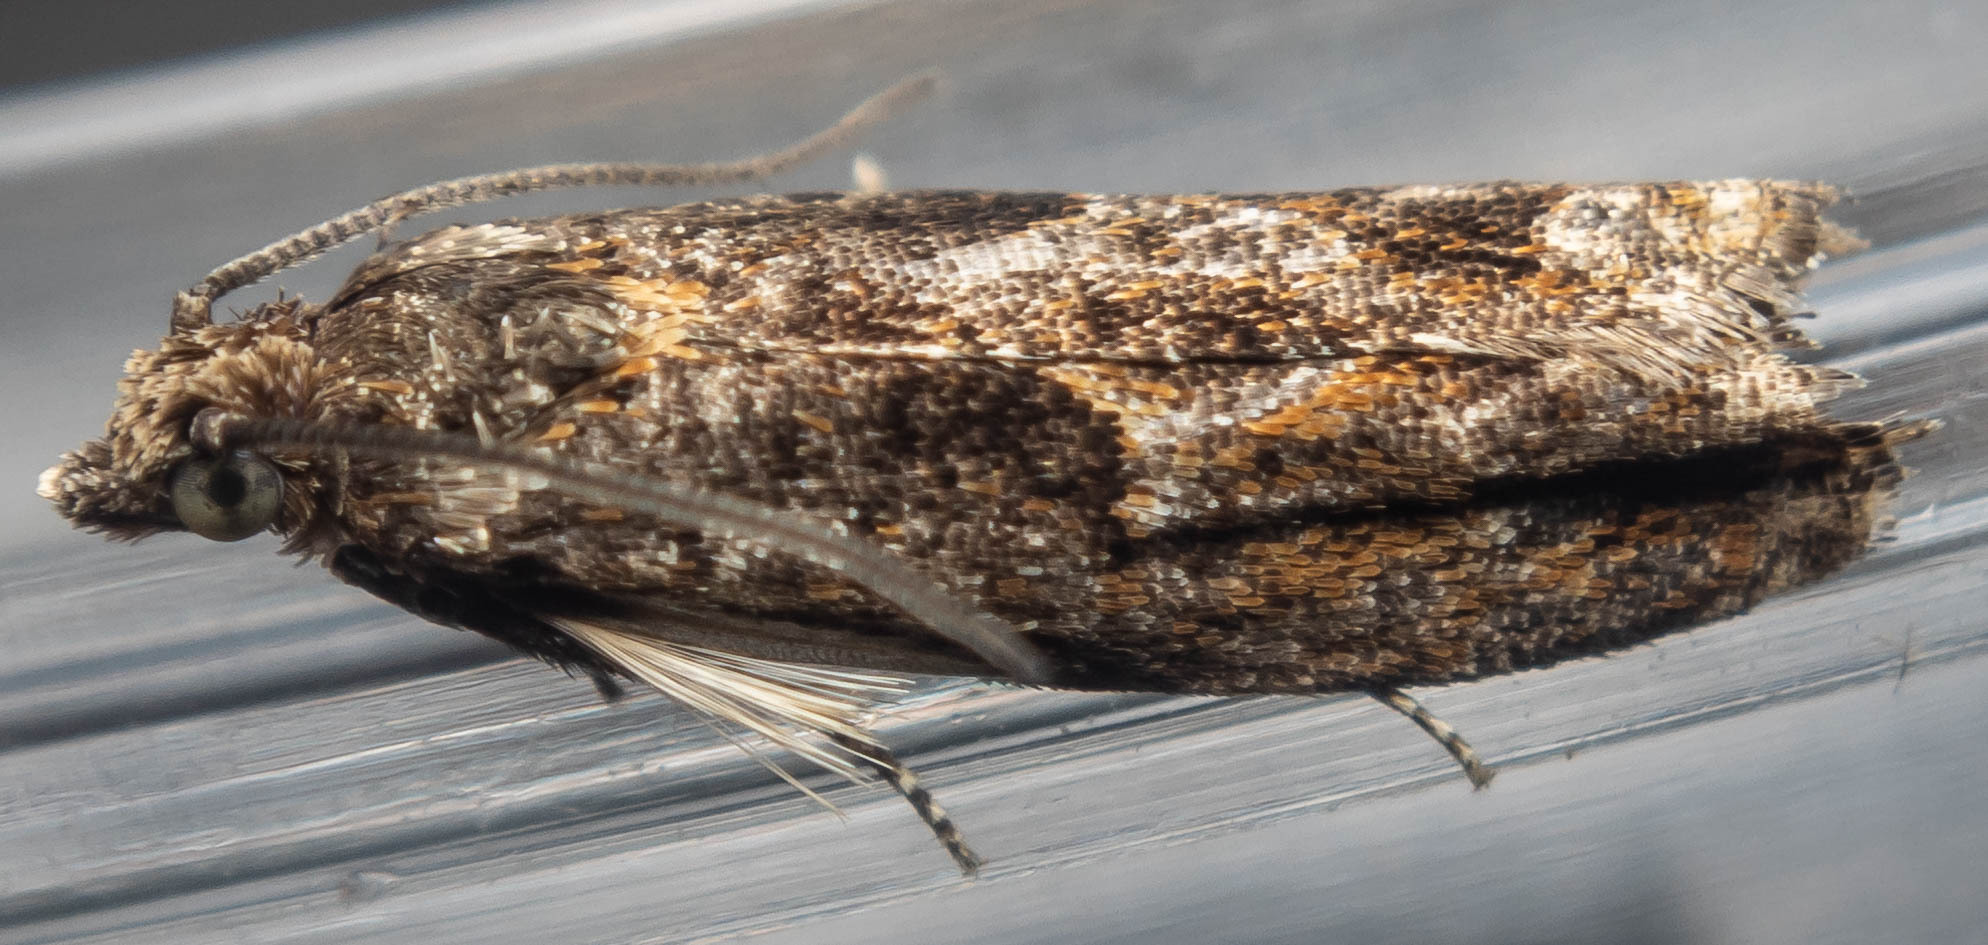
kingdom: Animalia
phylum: Arthropoda
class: Insecta
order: Lepidoptera
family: Tortricidae
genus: Epinotia
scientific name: Epinotia immundana
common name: Common birch bell
